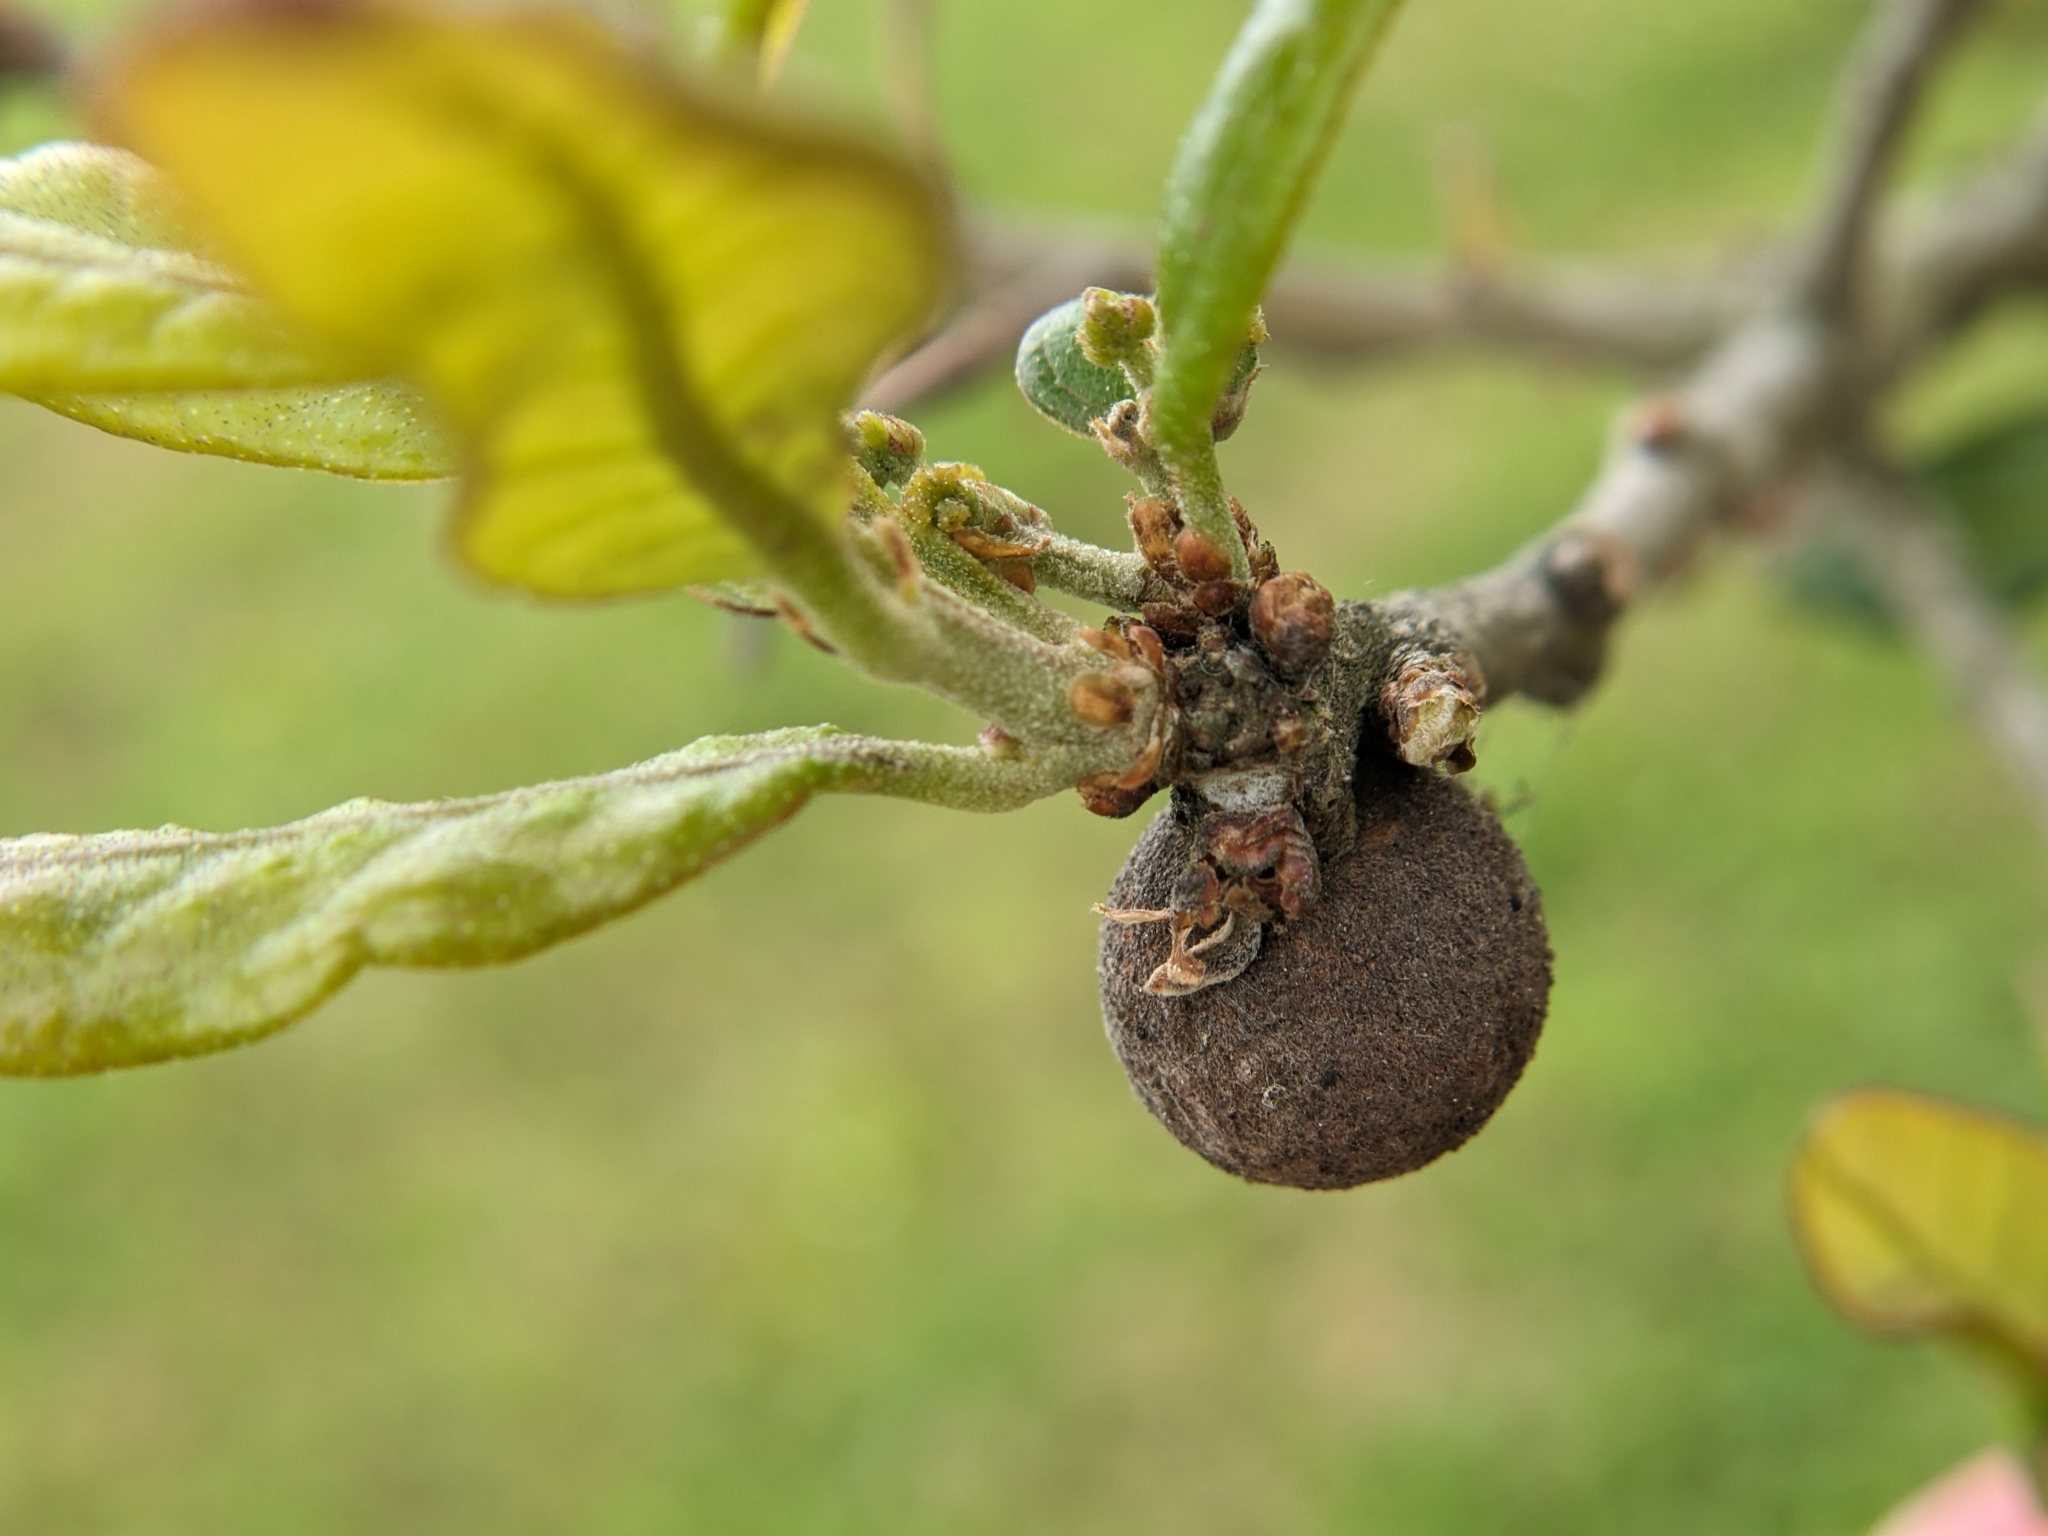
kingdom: Animalia
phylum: Arthropoda
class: Insecta
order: Hymenoptera
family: Cynipidae
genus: Disholcaspis
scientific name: Disholcaspis
